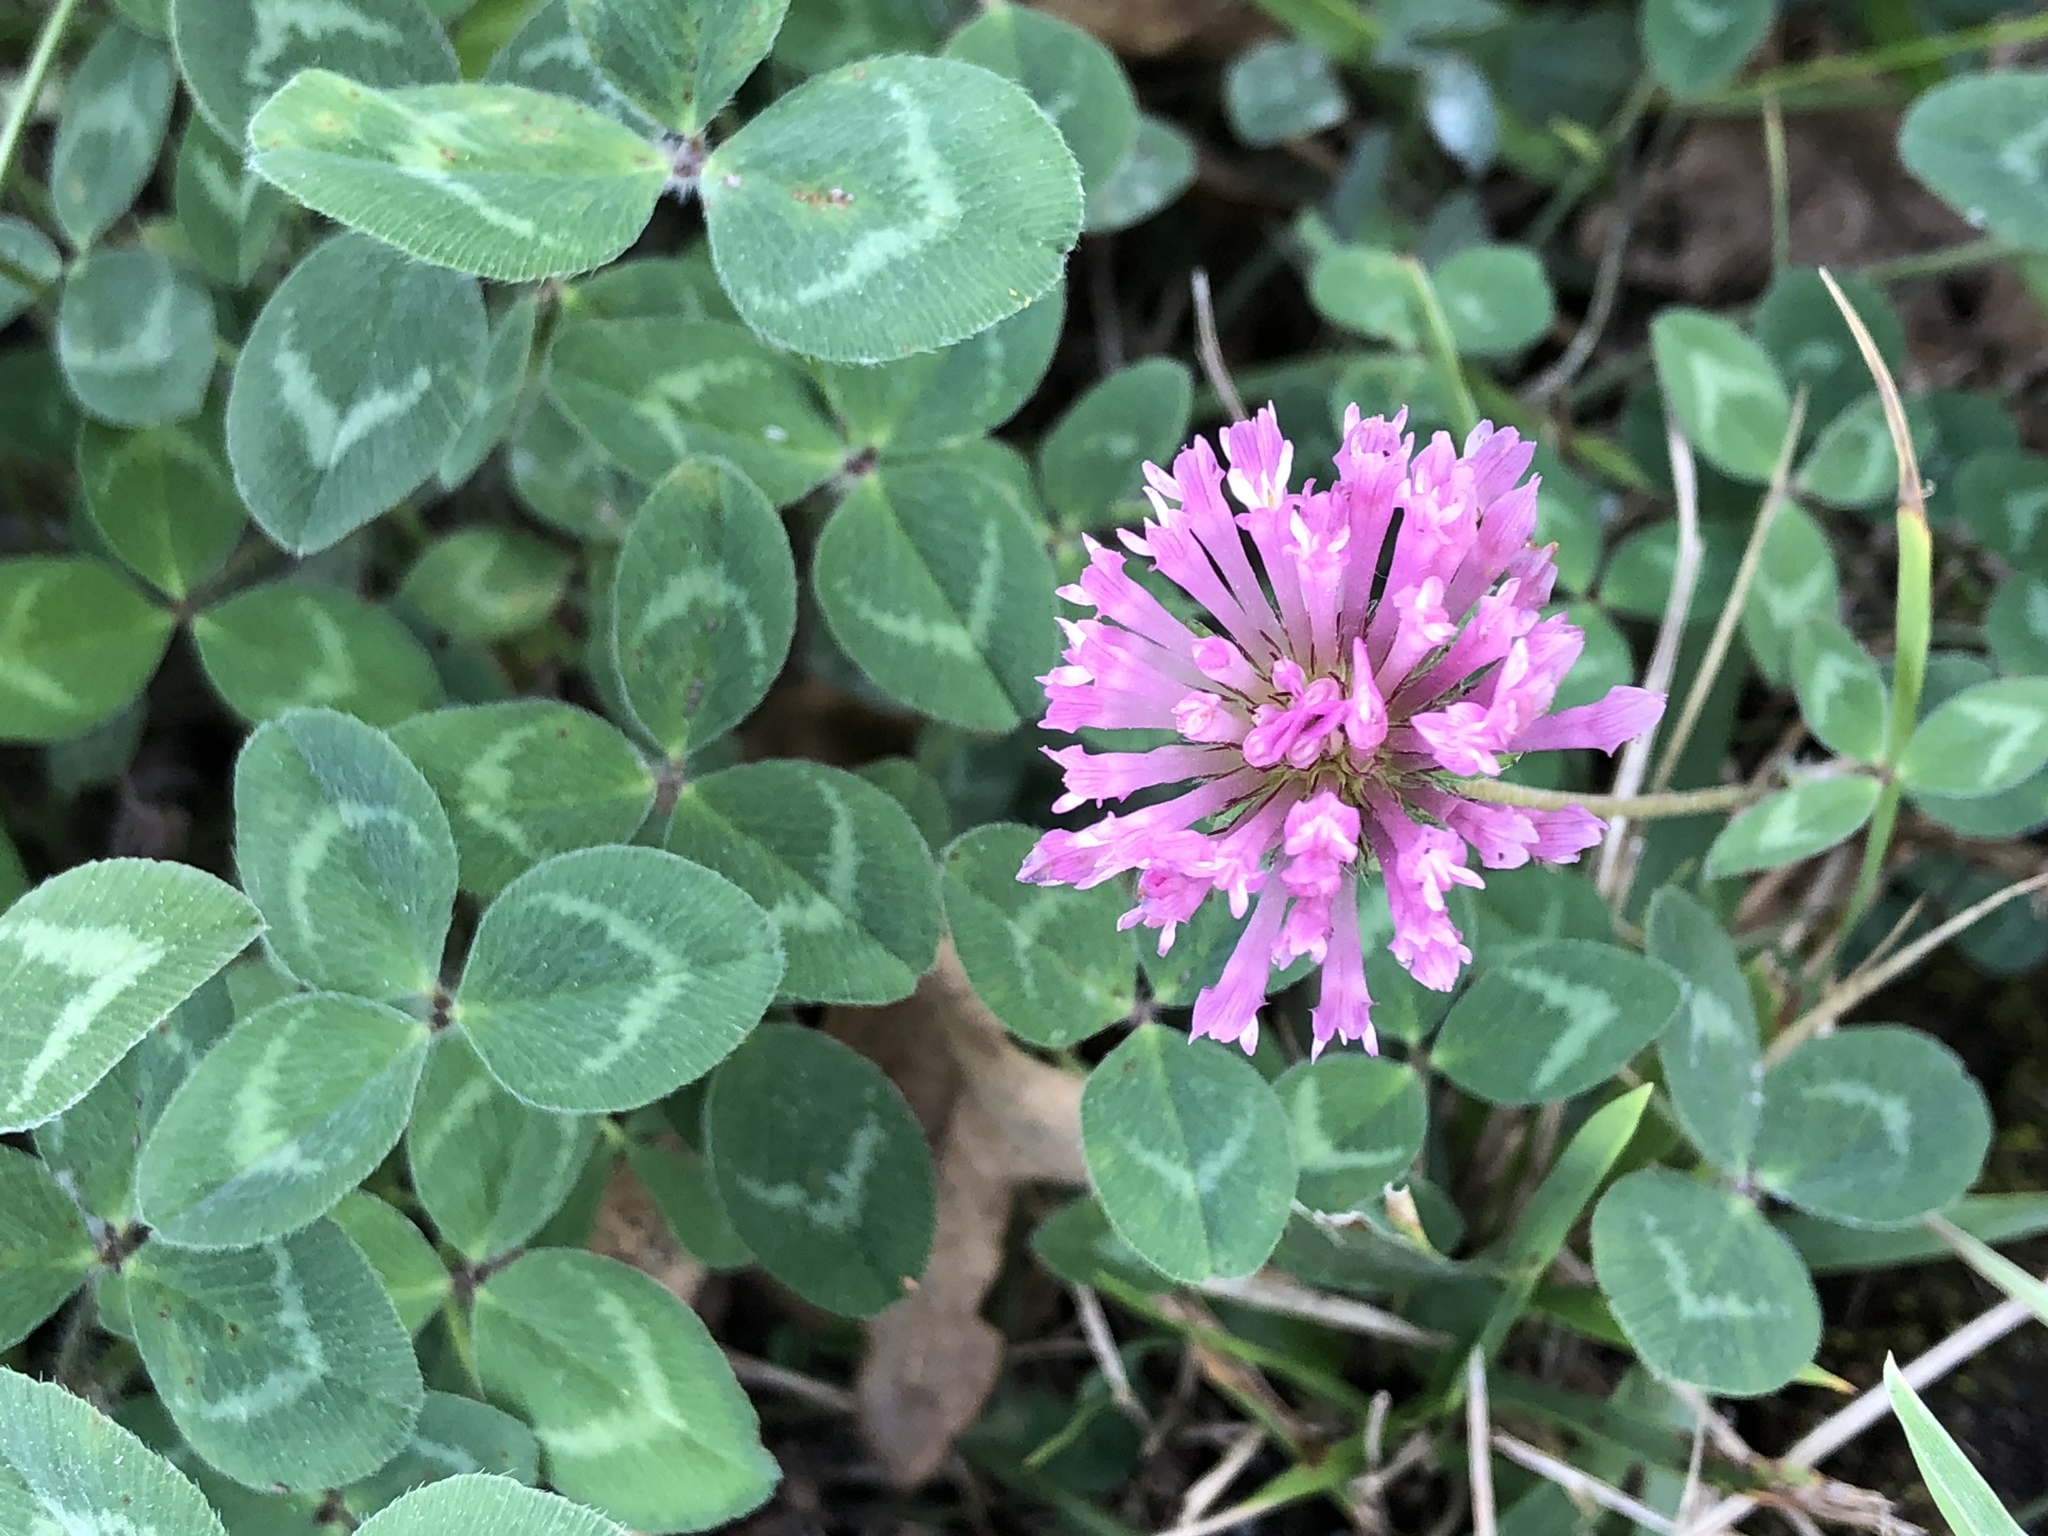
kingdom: Plantae
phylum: Tracheophyta
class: Magnoliopsida
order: Fabales
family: Fabaceae
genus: Trifolium
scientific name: Trifolium pratense
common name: Red clover
